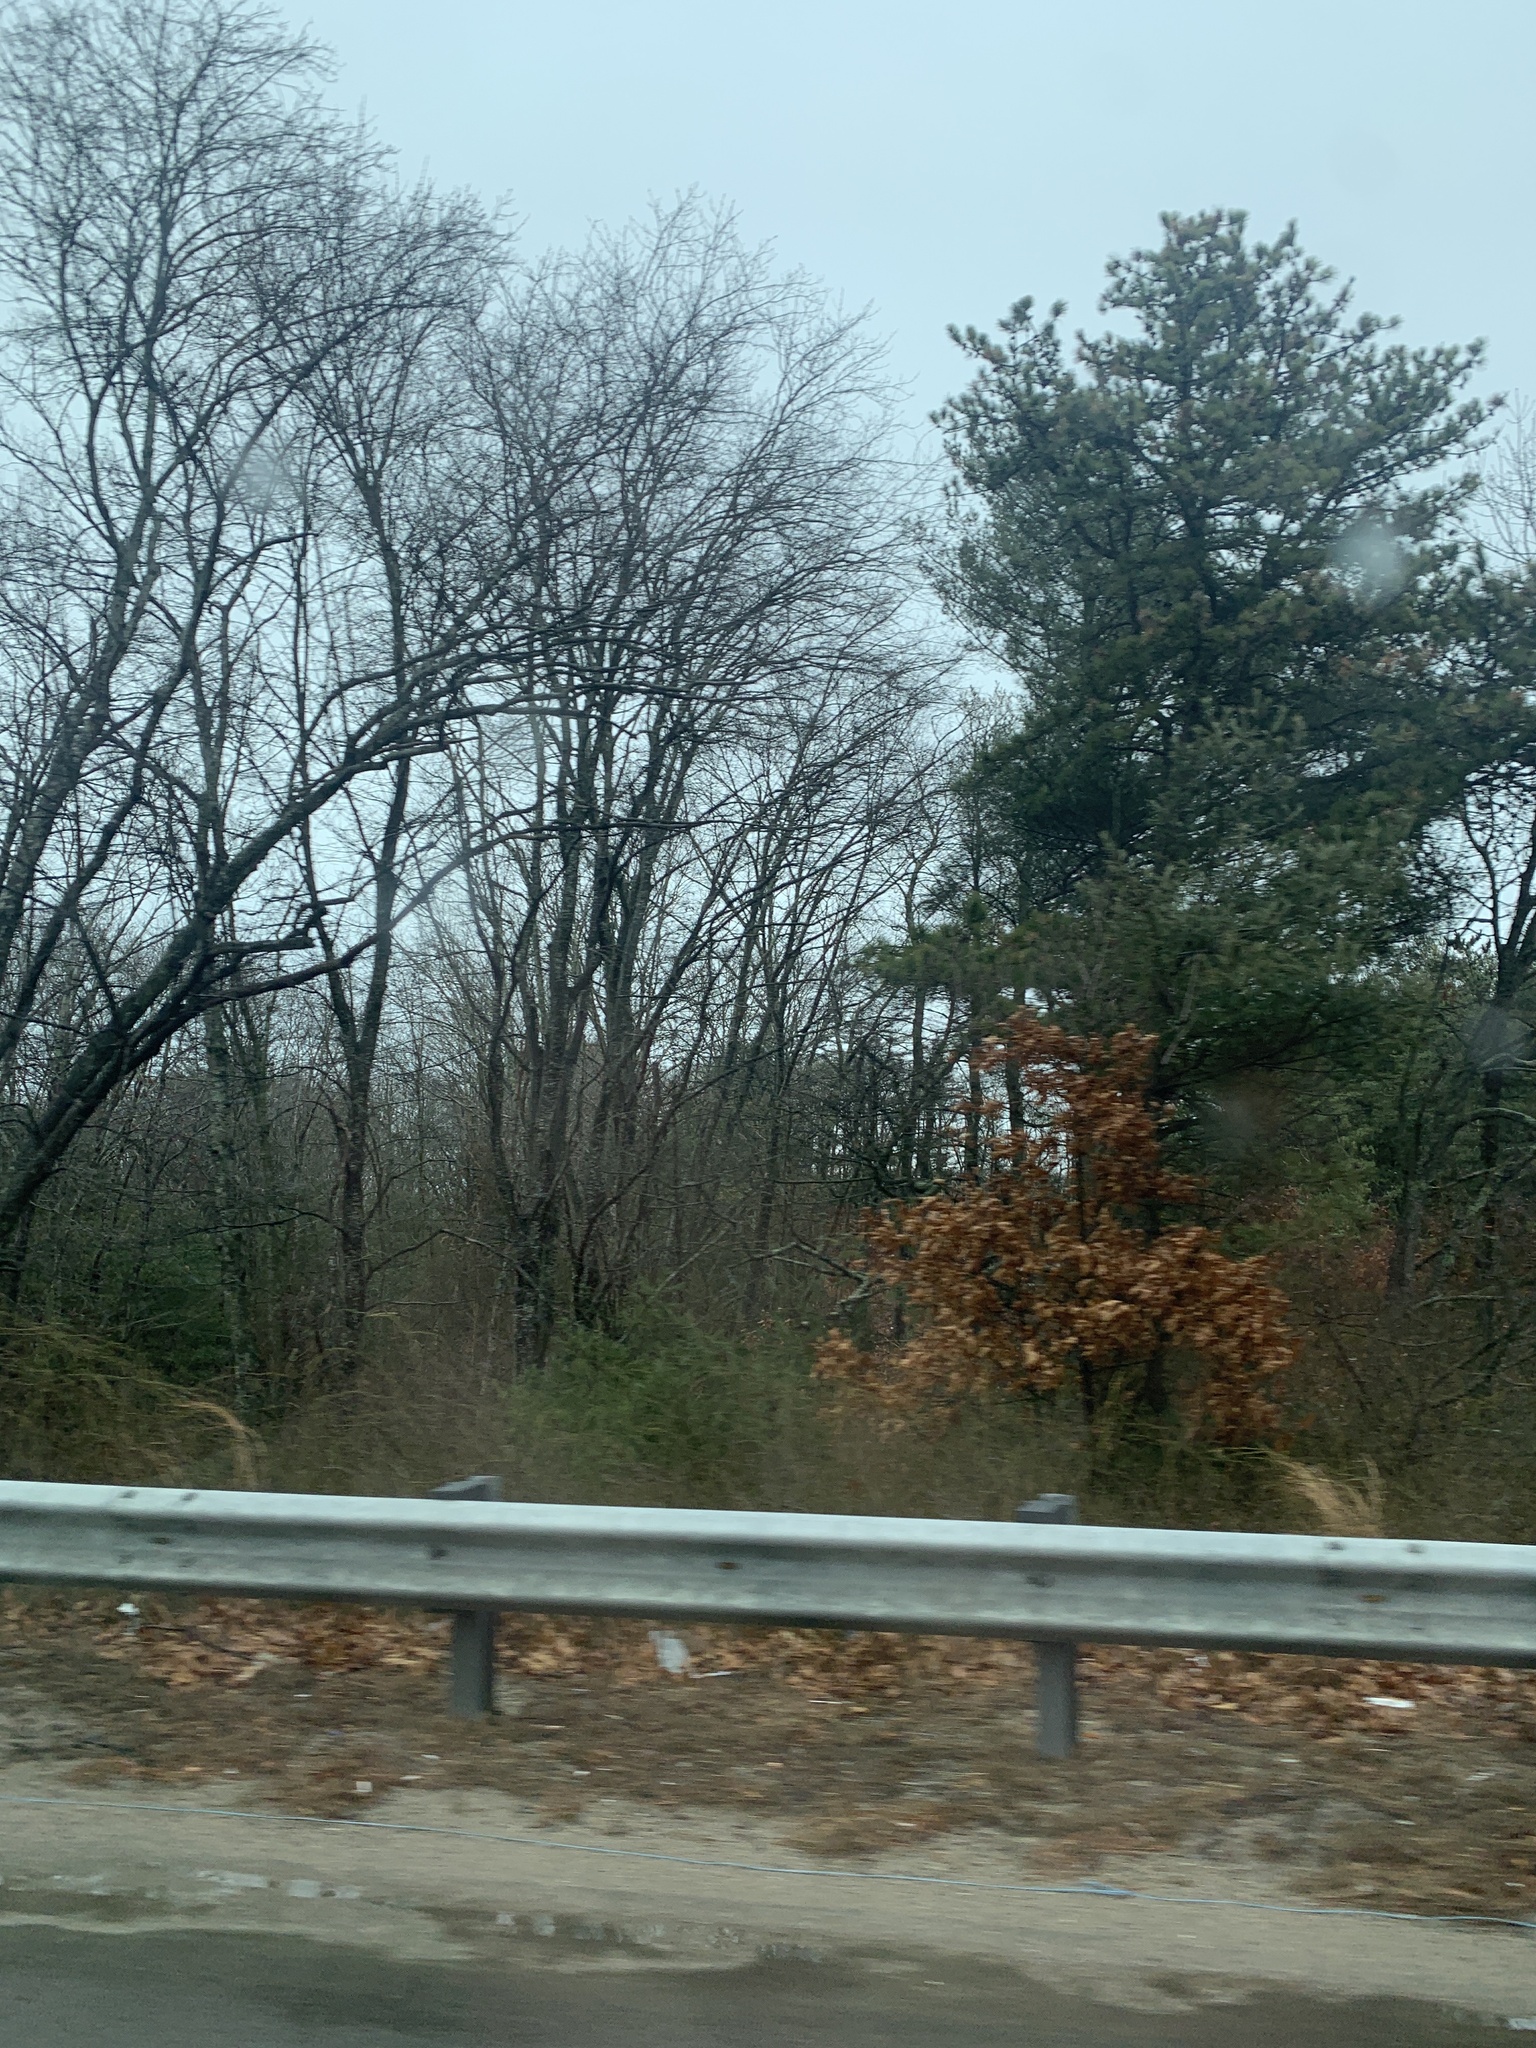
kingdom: Plantae
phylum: Tracheophyta
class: Pinopsida
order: Pinales
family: Pinaceae
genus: Pinus
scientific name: Pinus rigida
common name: Pitch pine
